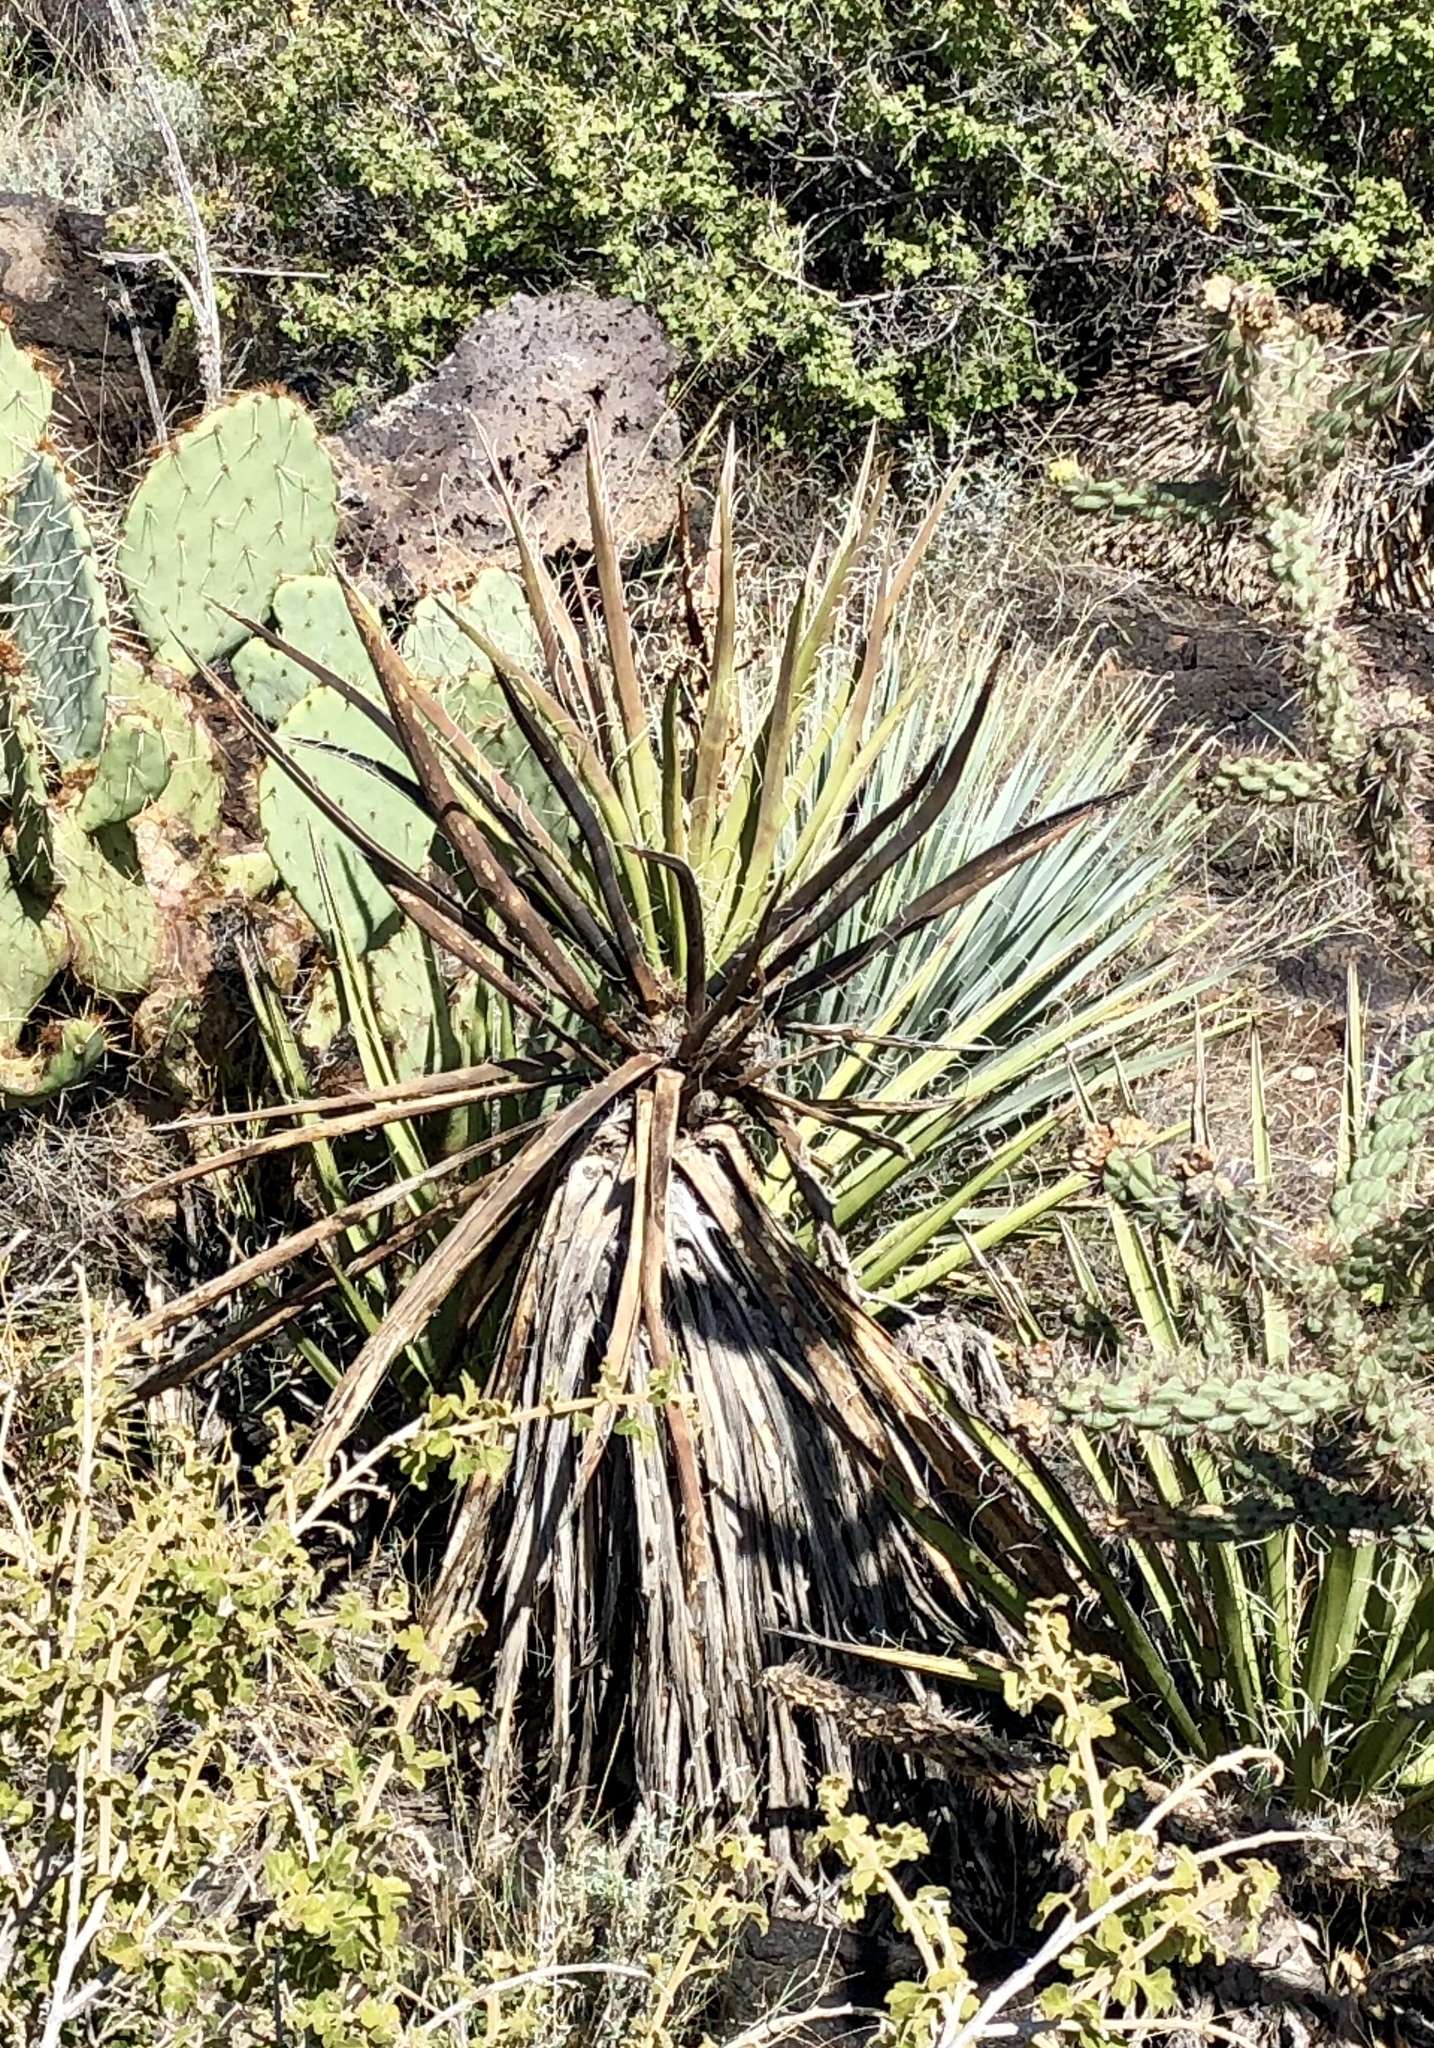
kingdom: Plantae
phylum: Tracheophyta
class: Liliopsida
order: Asparagales
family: Asparagaceae
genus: Yucca
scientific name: Yucca baccata
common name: Banana yucca
